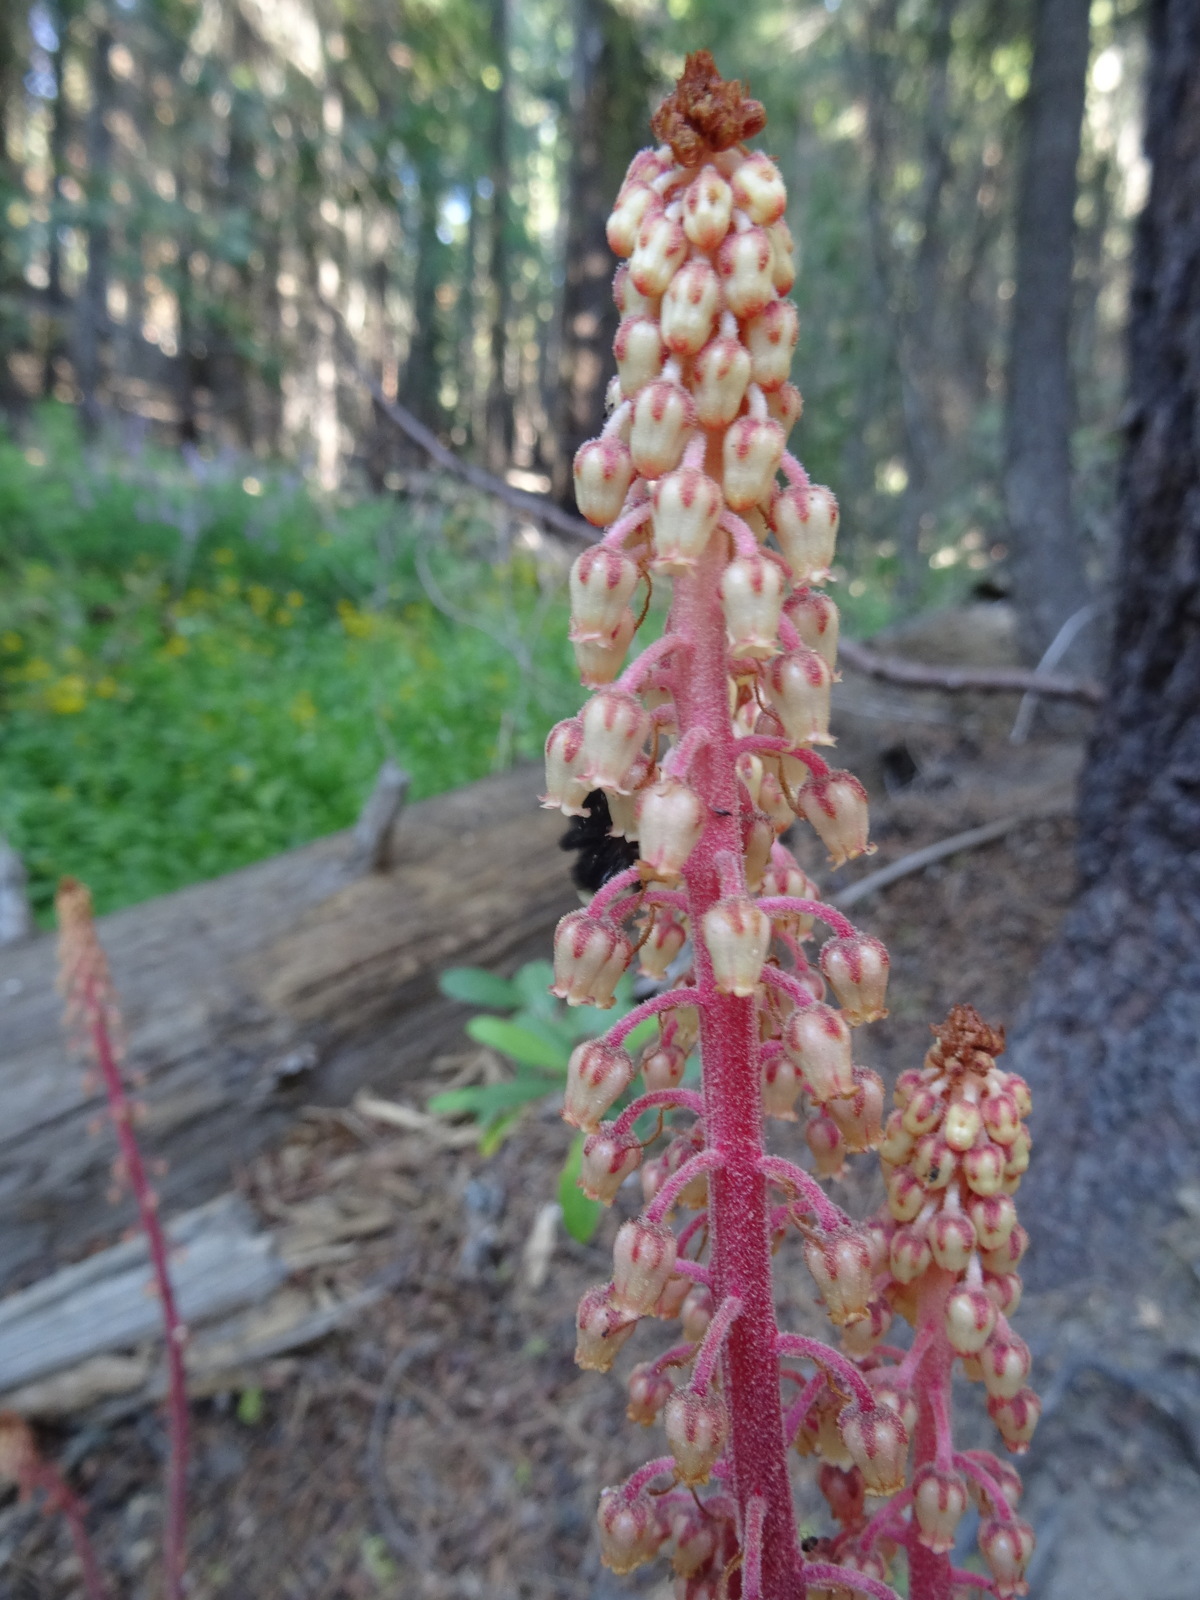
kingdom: Plantae
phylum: Tracheophyta
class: Magnoliopsida
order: Ericales
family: Ericaceae
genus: Pterospora
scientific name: Pterospora andromedea
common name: Giant bird's-nest
